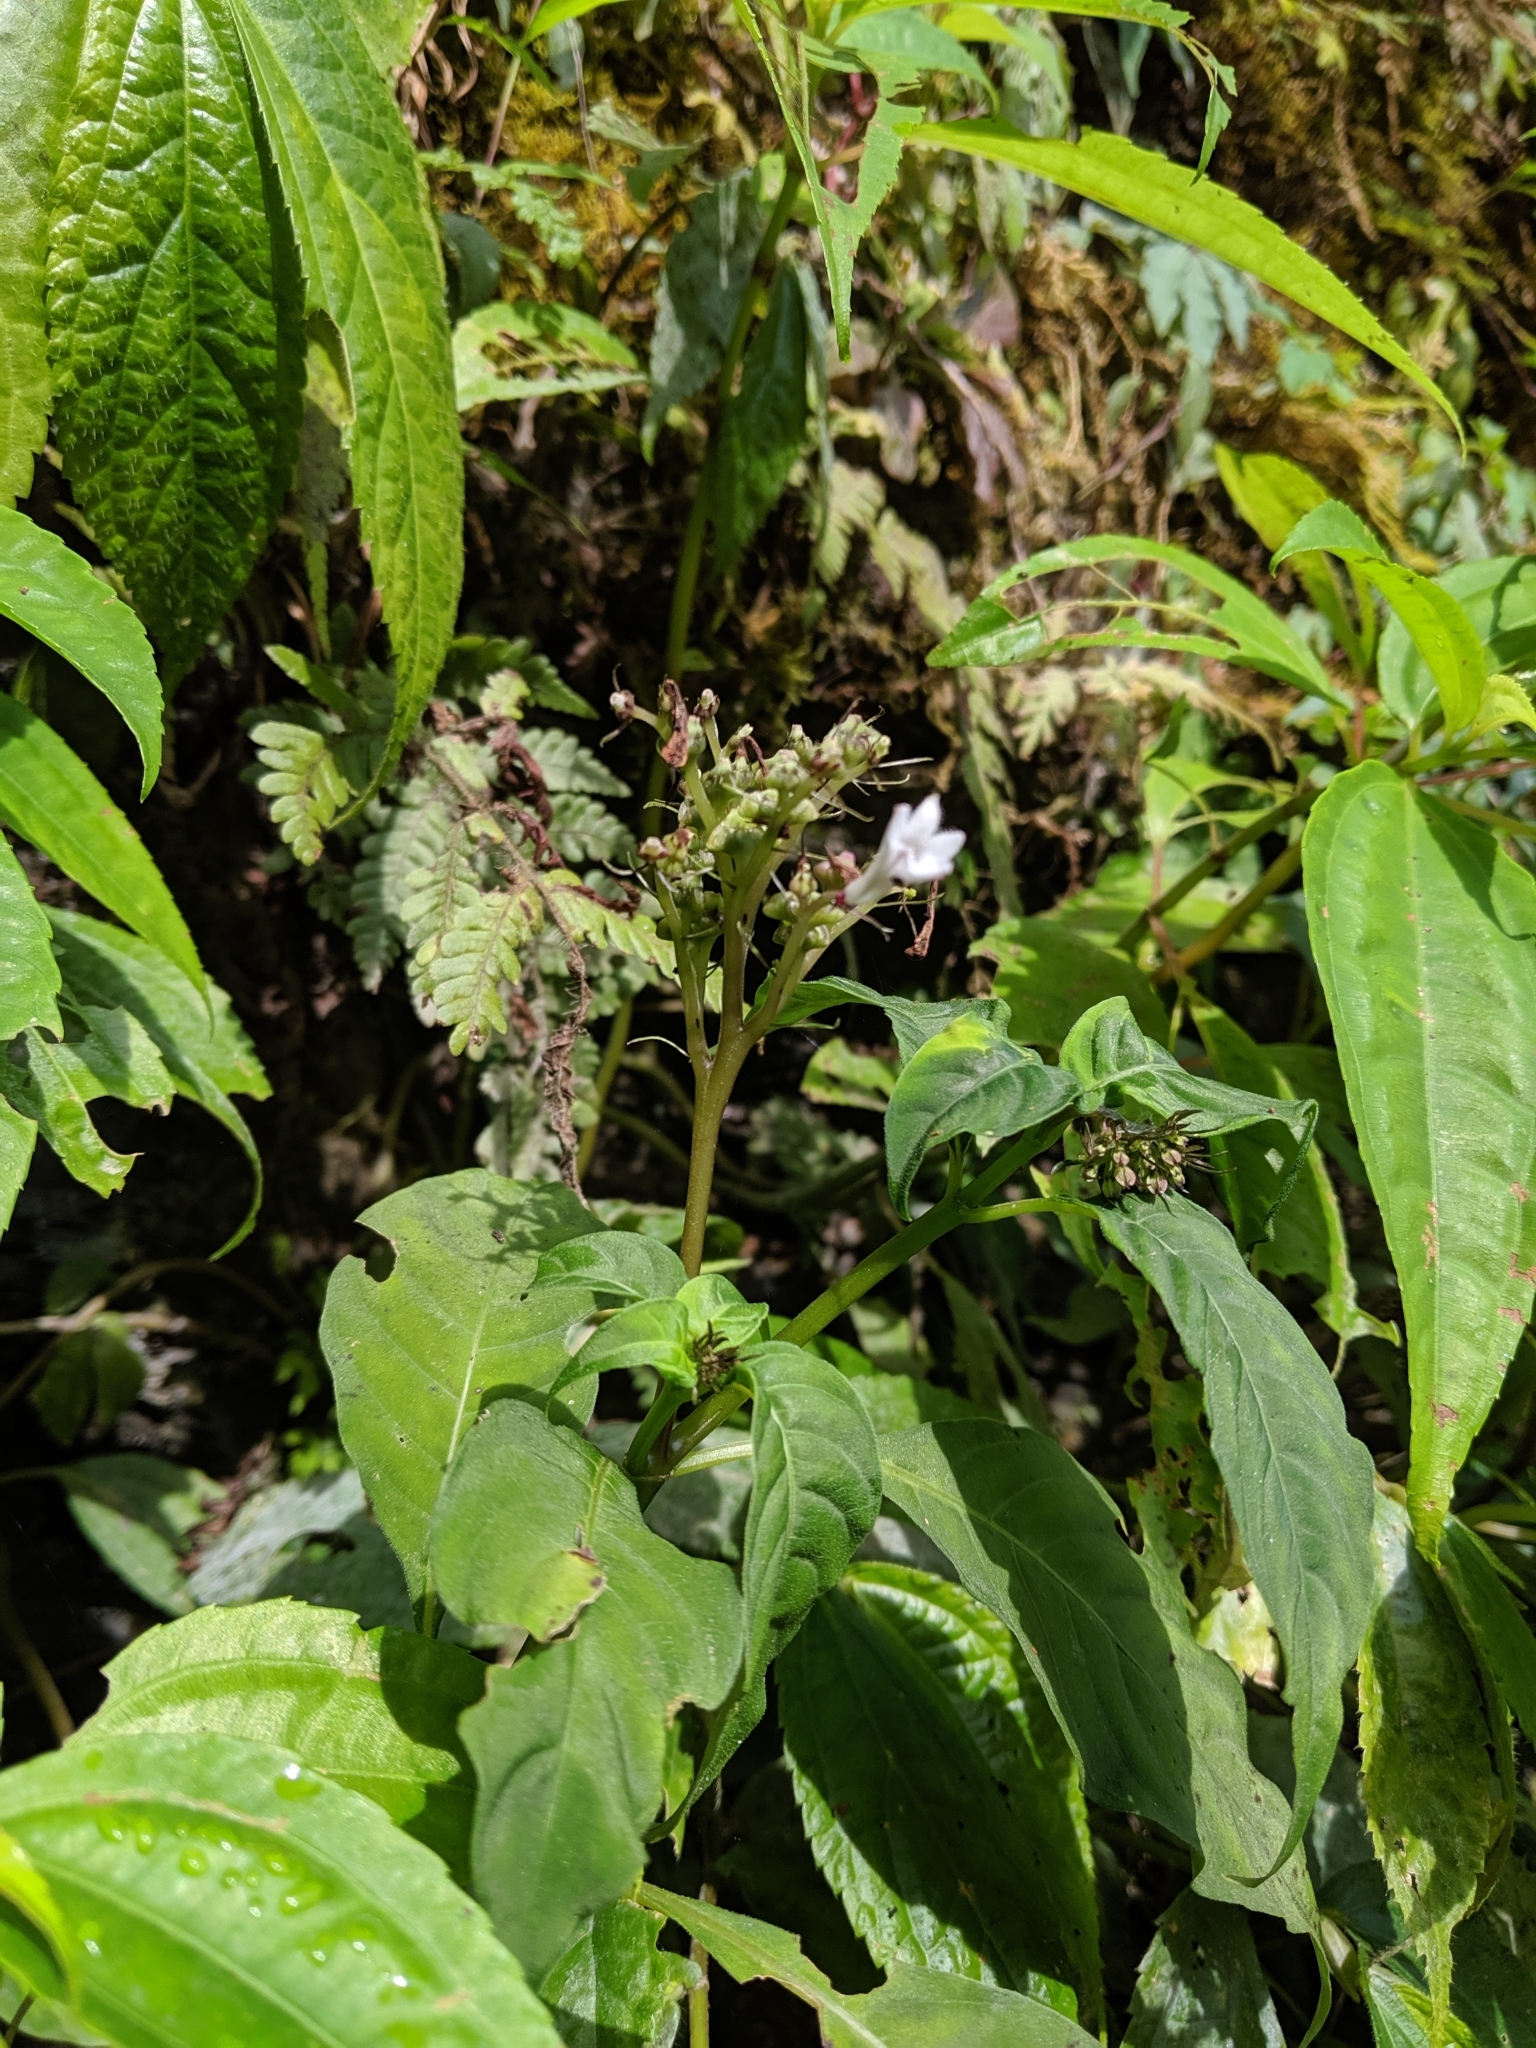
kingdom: Plantae
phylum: Tracheophyta
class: Magnoliopsida
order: Gentianales
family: Rubiaceae
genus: Ophiorrhiza
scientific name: Ophiorrhiza japonica
